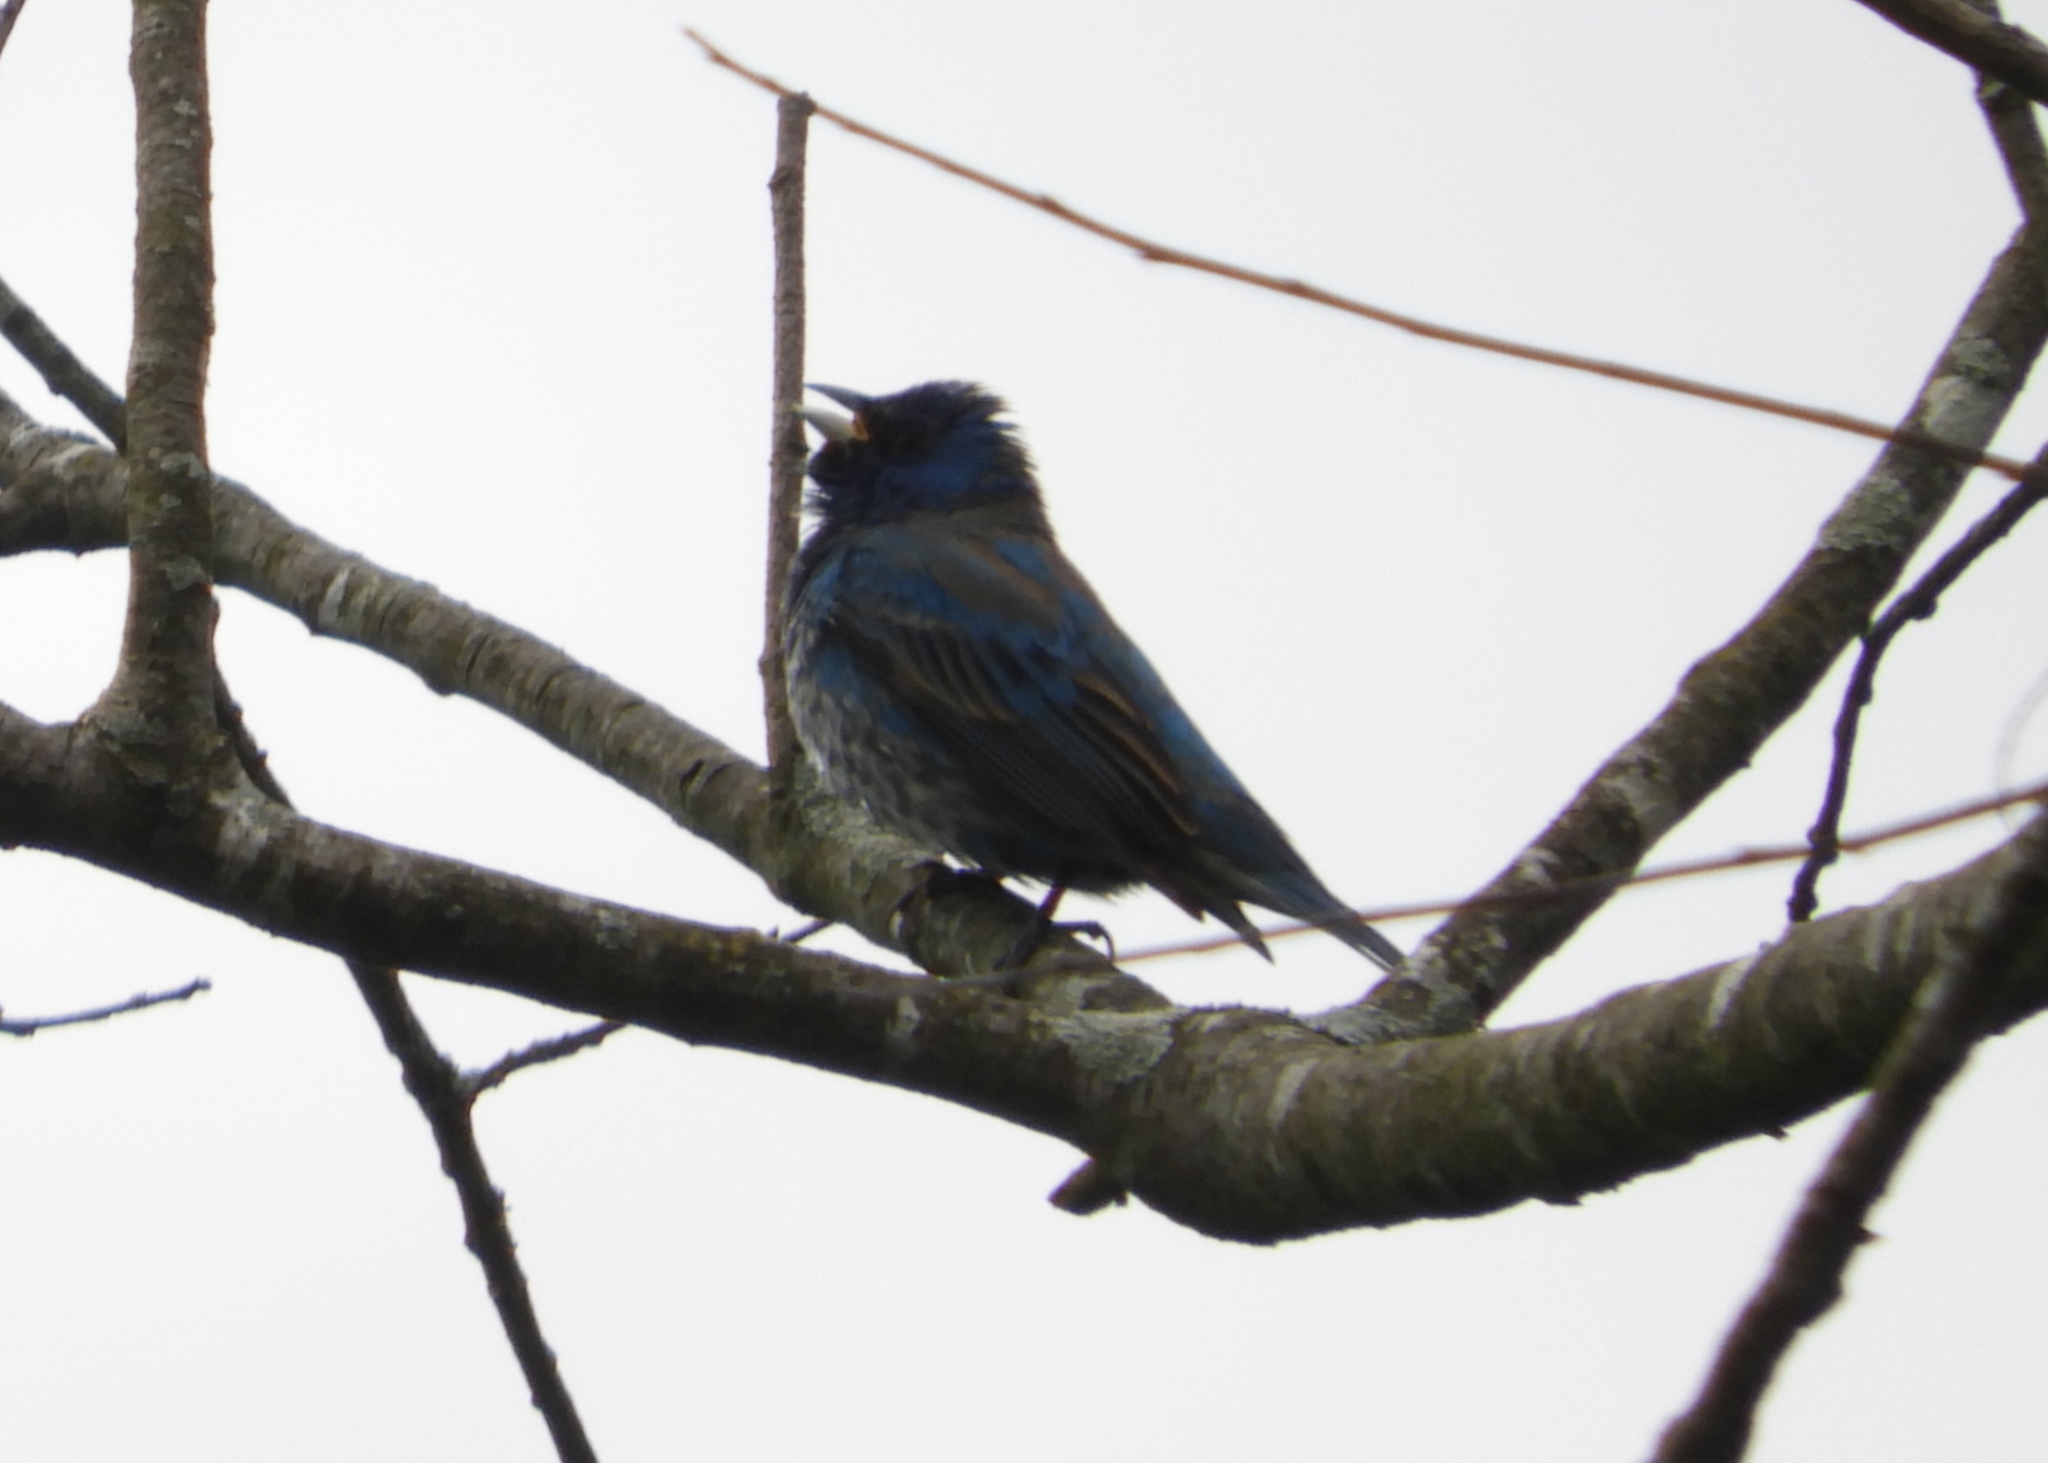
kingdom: Animalia
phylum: Chordata
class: Aves
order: Passeriformes
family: Cardinalidae
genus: Passerina
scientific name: Passerina cyanea
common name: Indigo bunting
